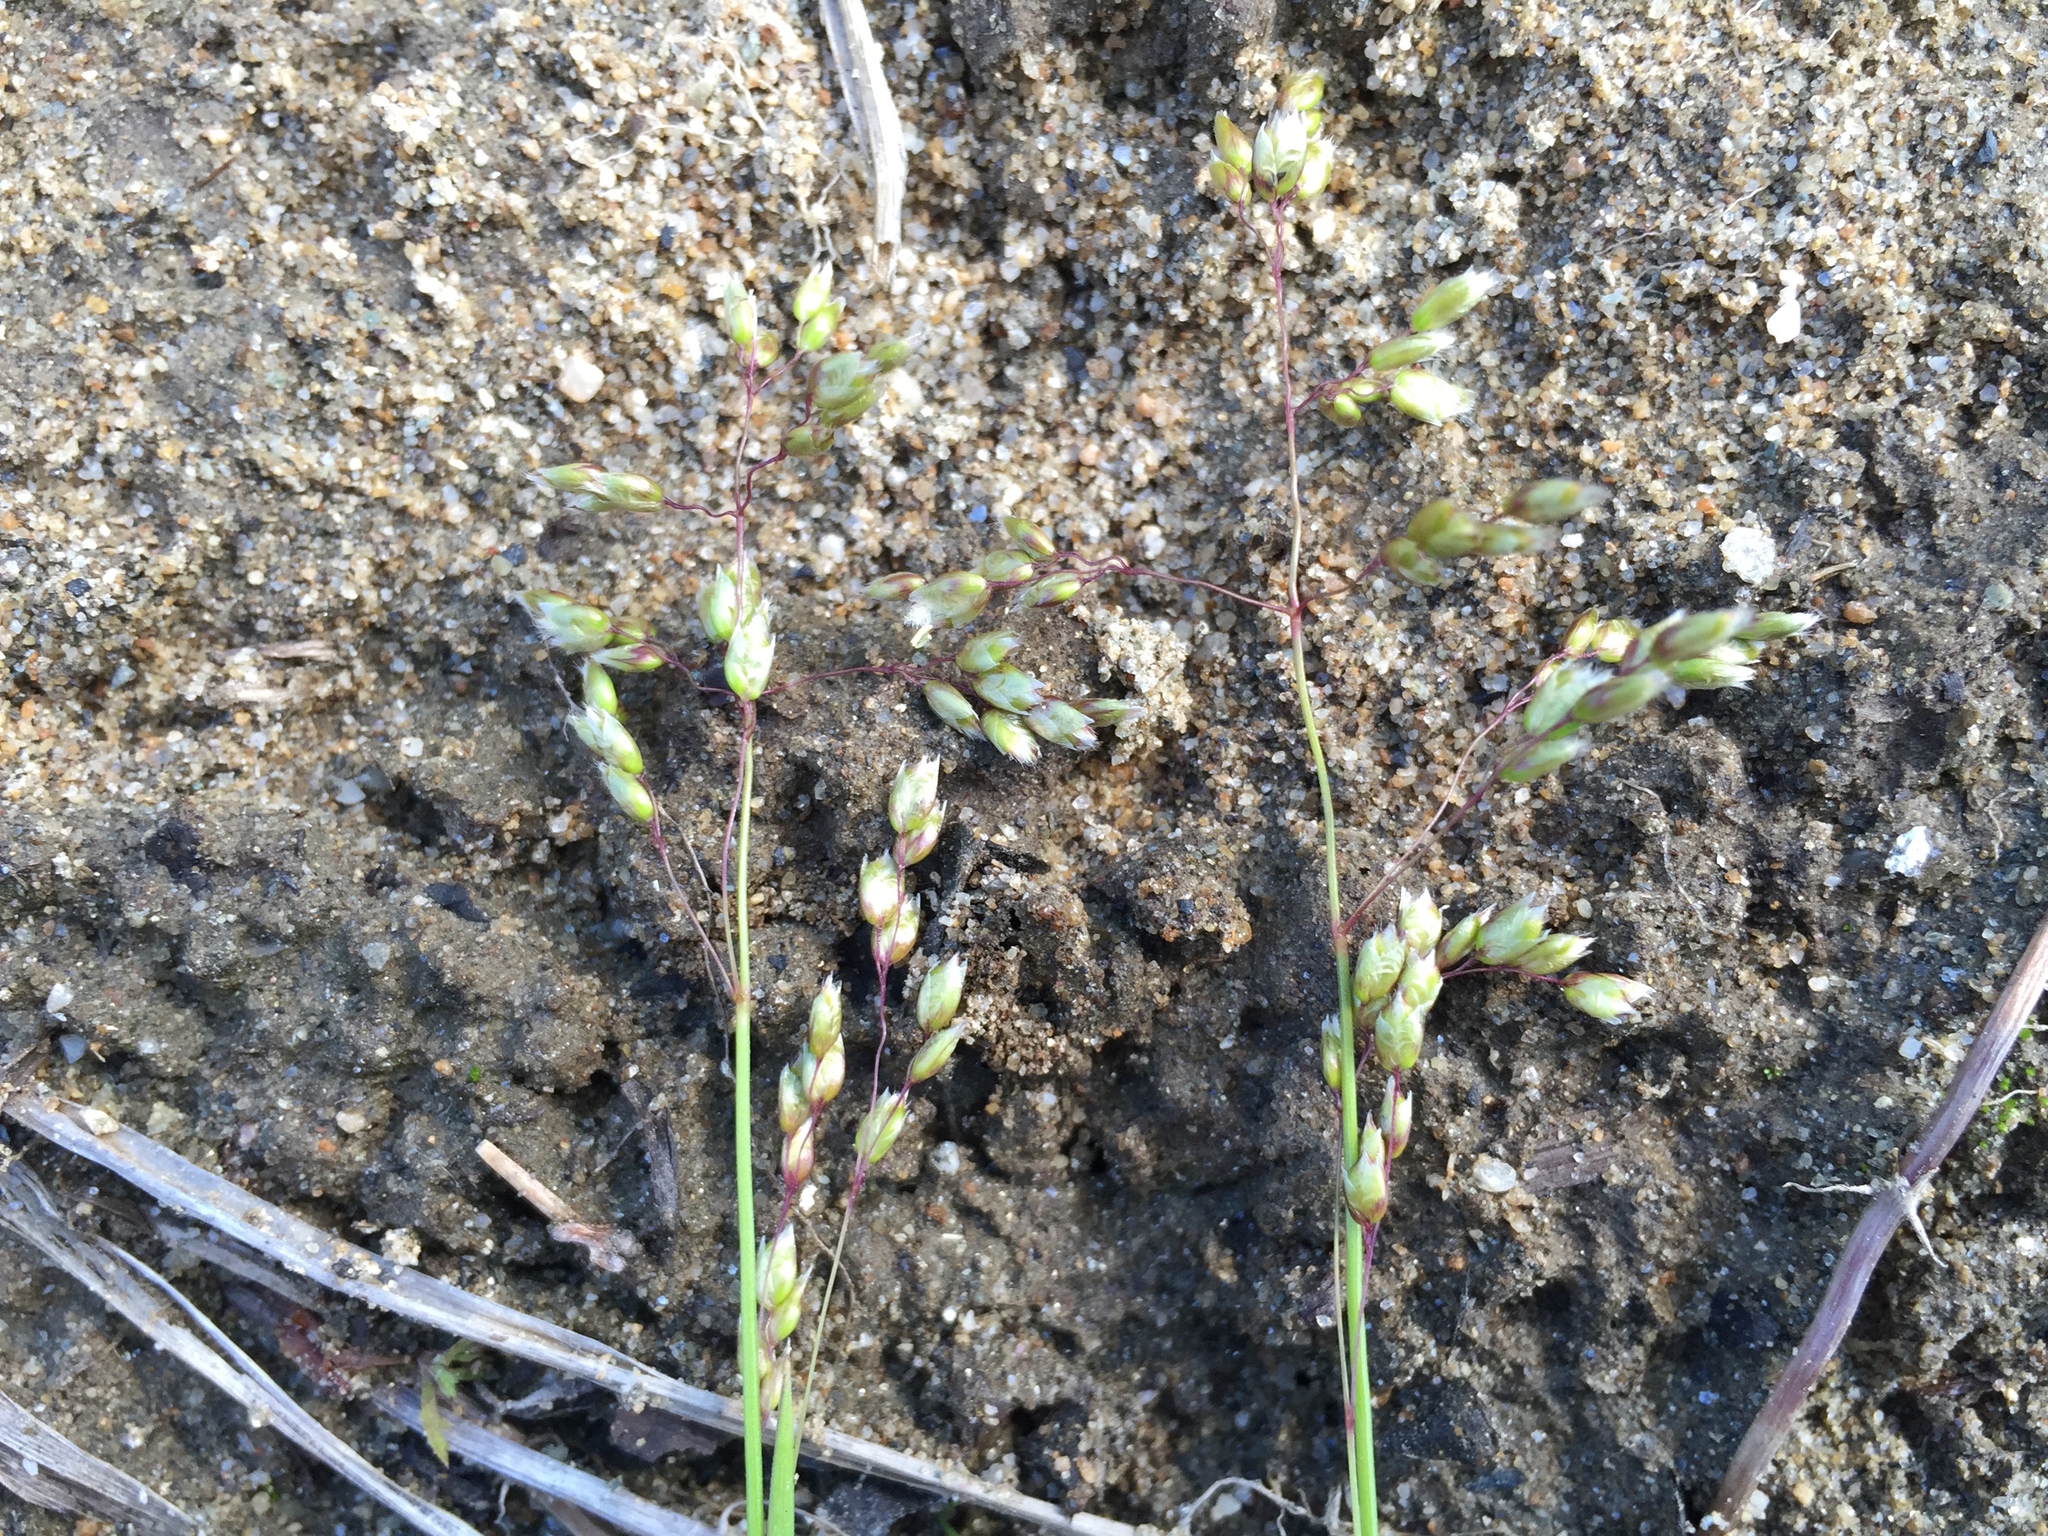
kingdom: Plantae
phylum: Tracheophyta
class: Liliopsida
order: Poales
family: Poaceae
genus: Anthoxanthum
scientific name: Anthoxanthum nitens
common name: Holy grass
